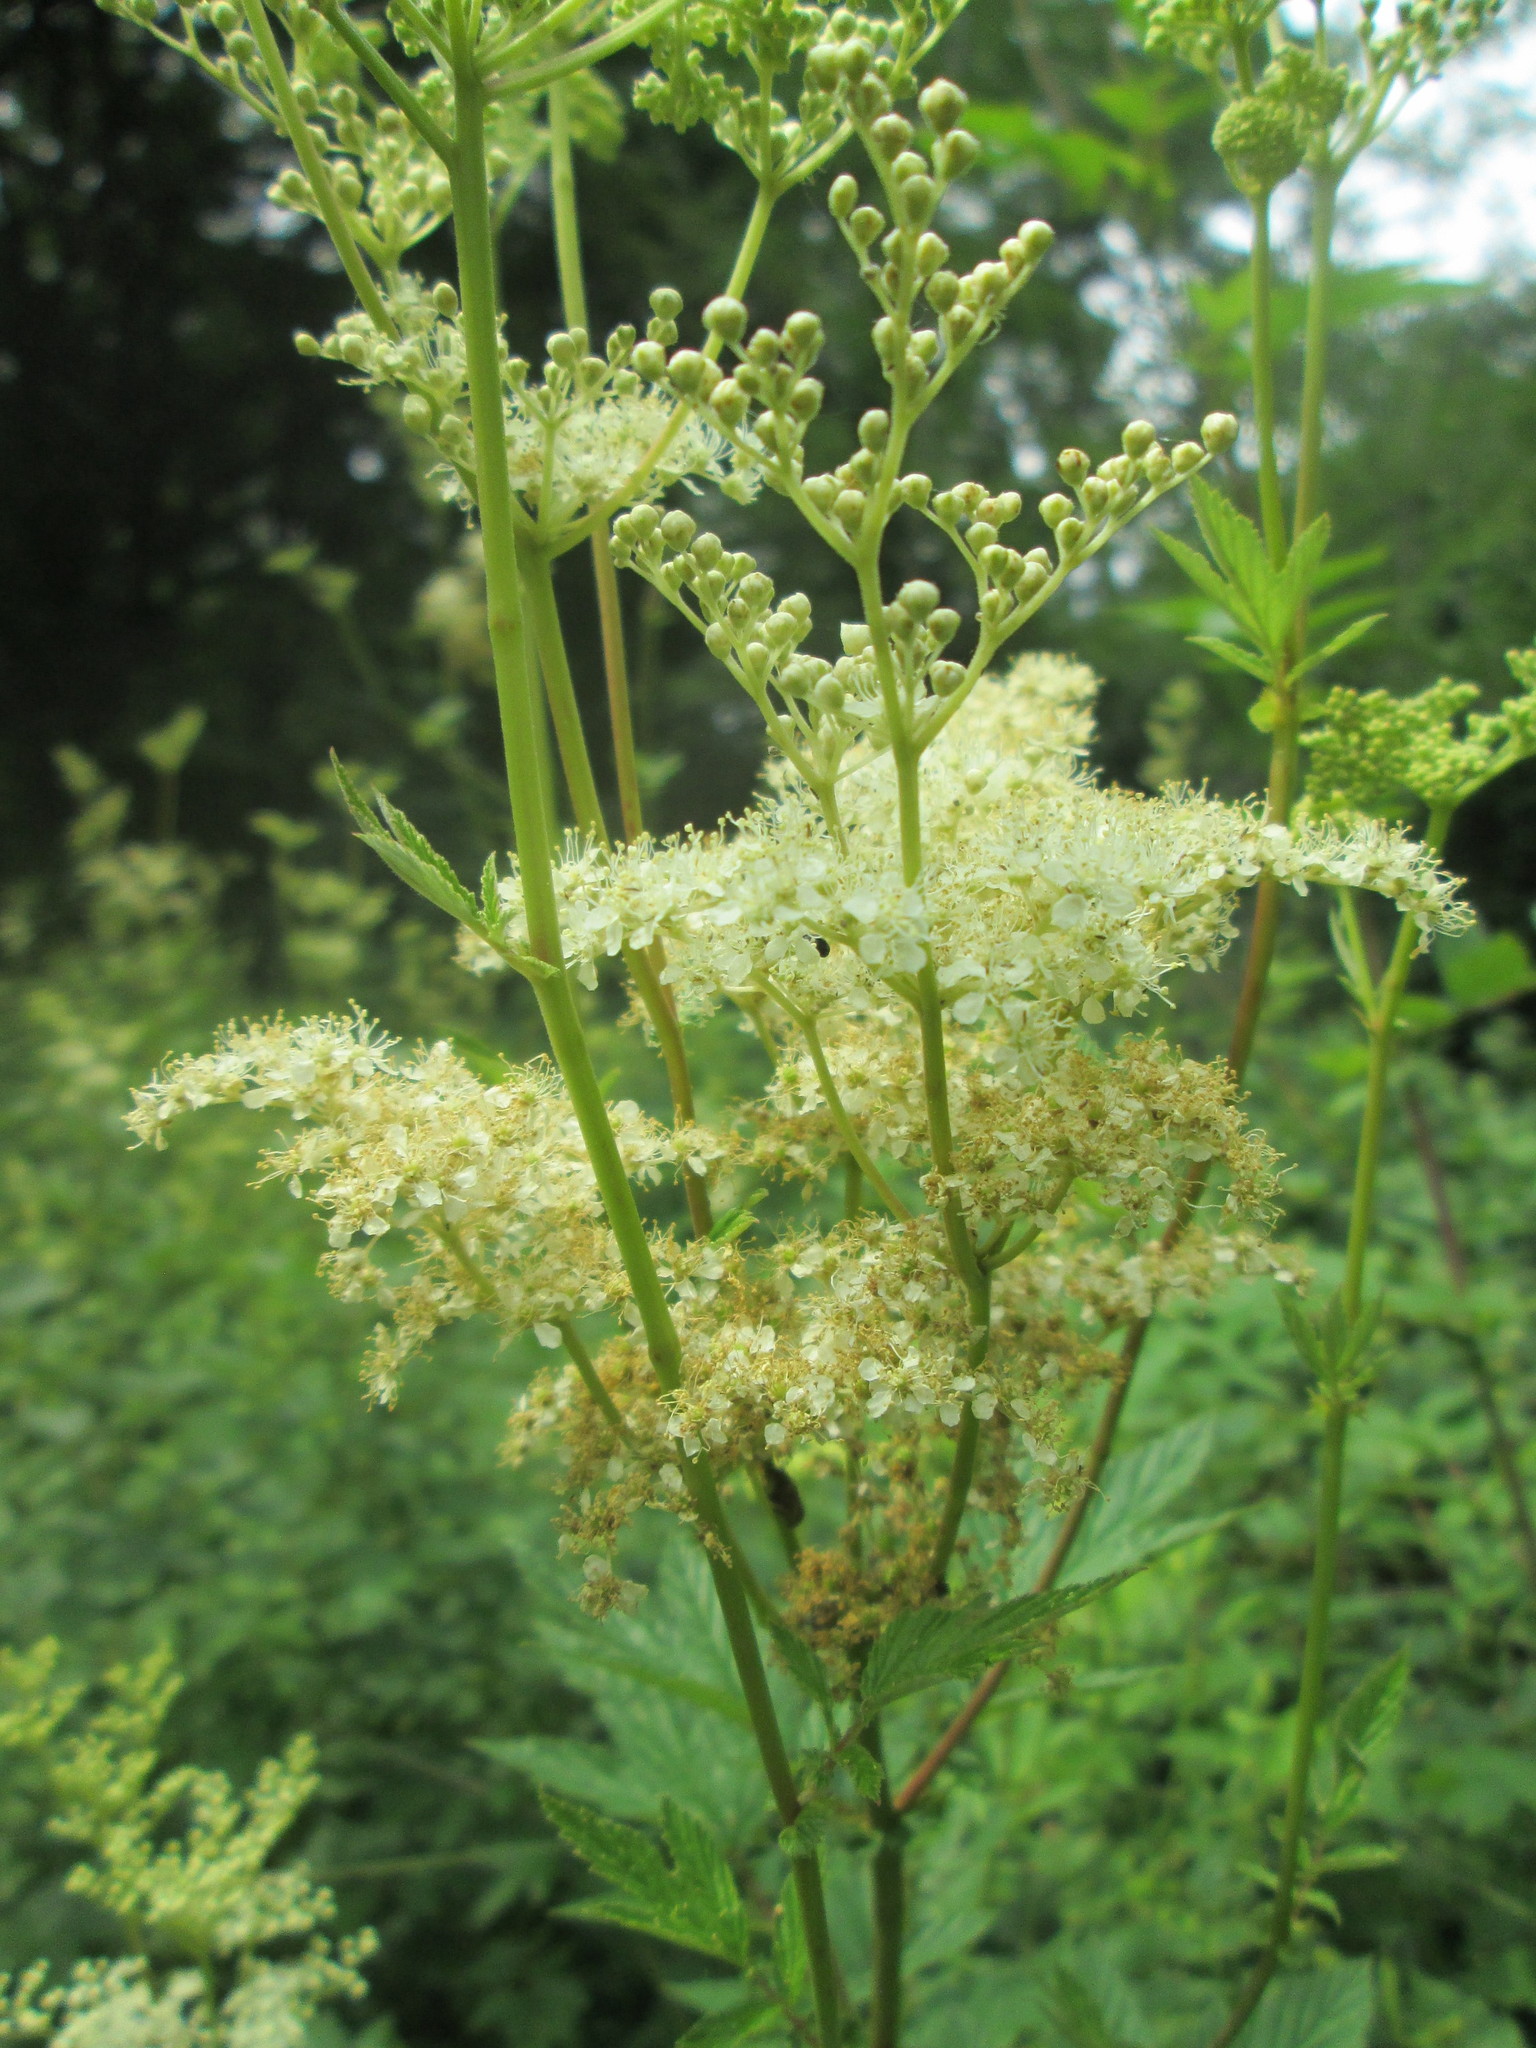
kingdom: Plantae
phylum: Tracheophyta
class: Magnoliopsida
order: Rosales
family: Rosaceae
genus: Filipendula
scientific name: Filipendula ulmaria
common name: Meadowsweet
